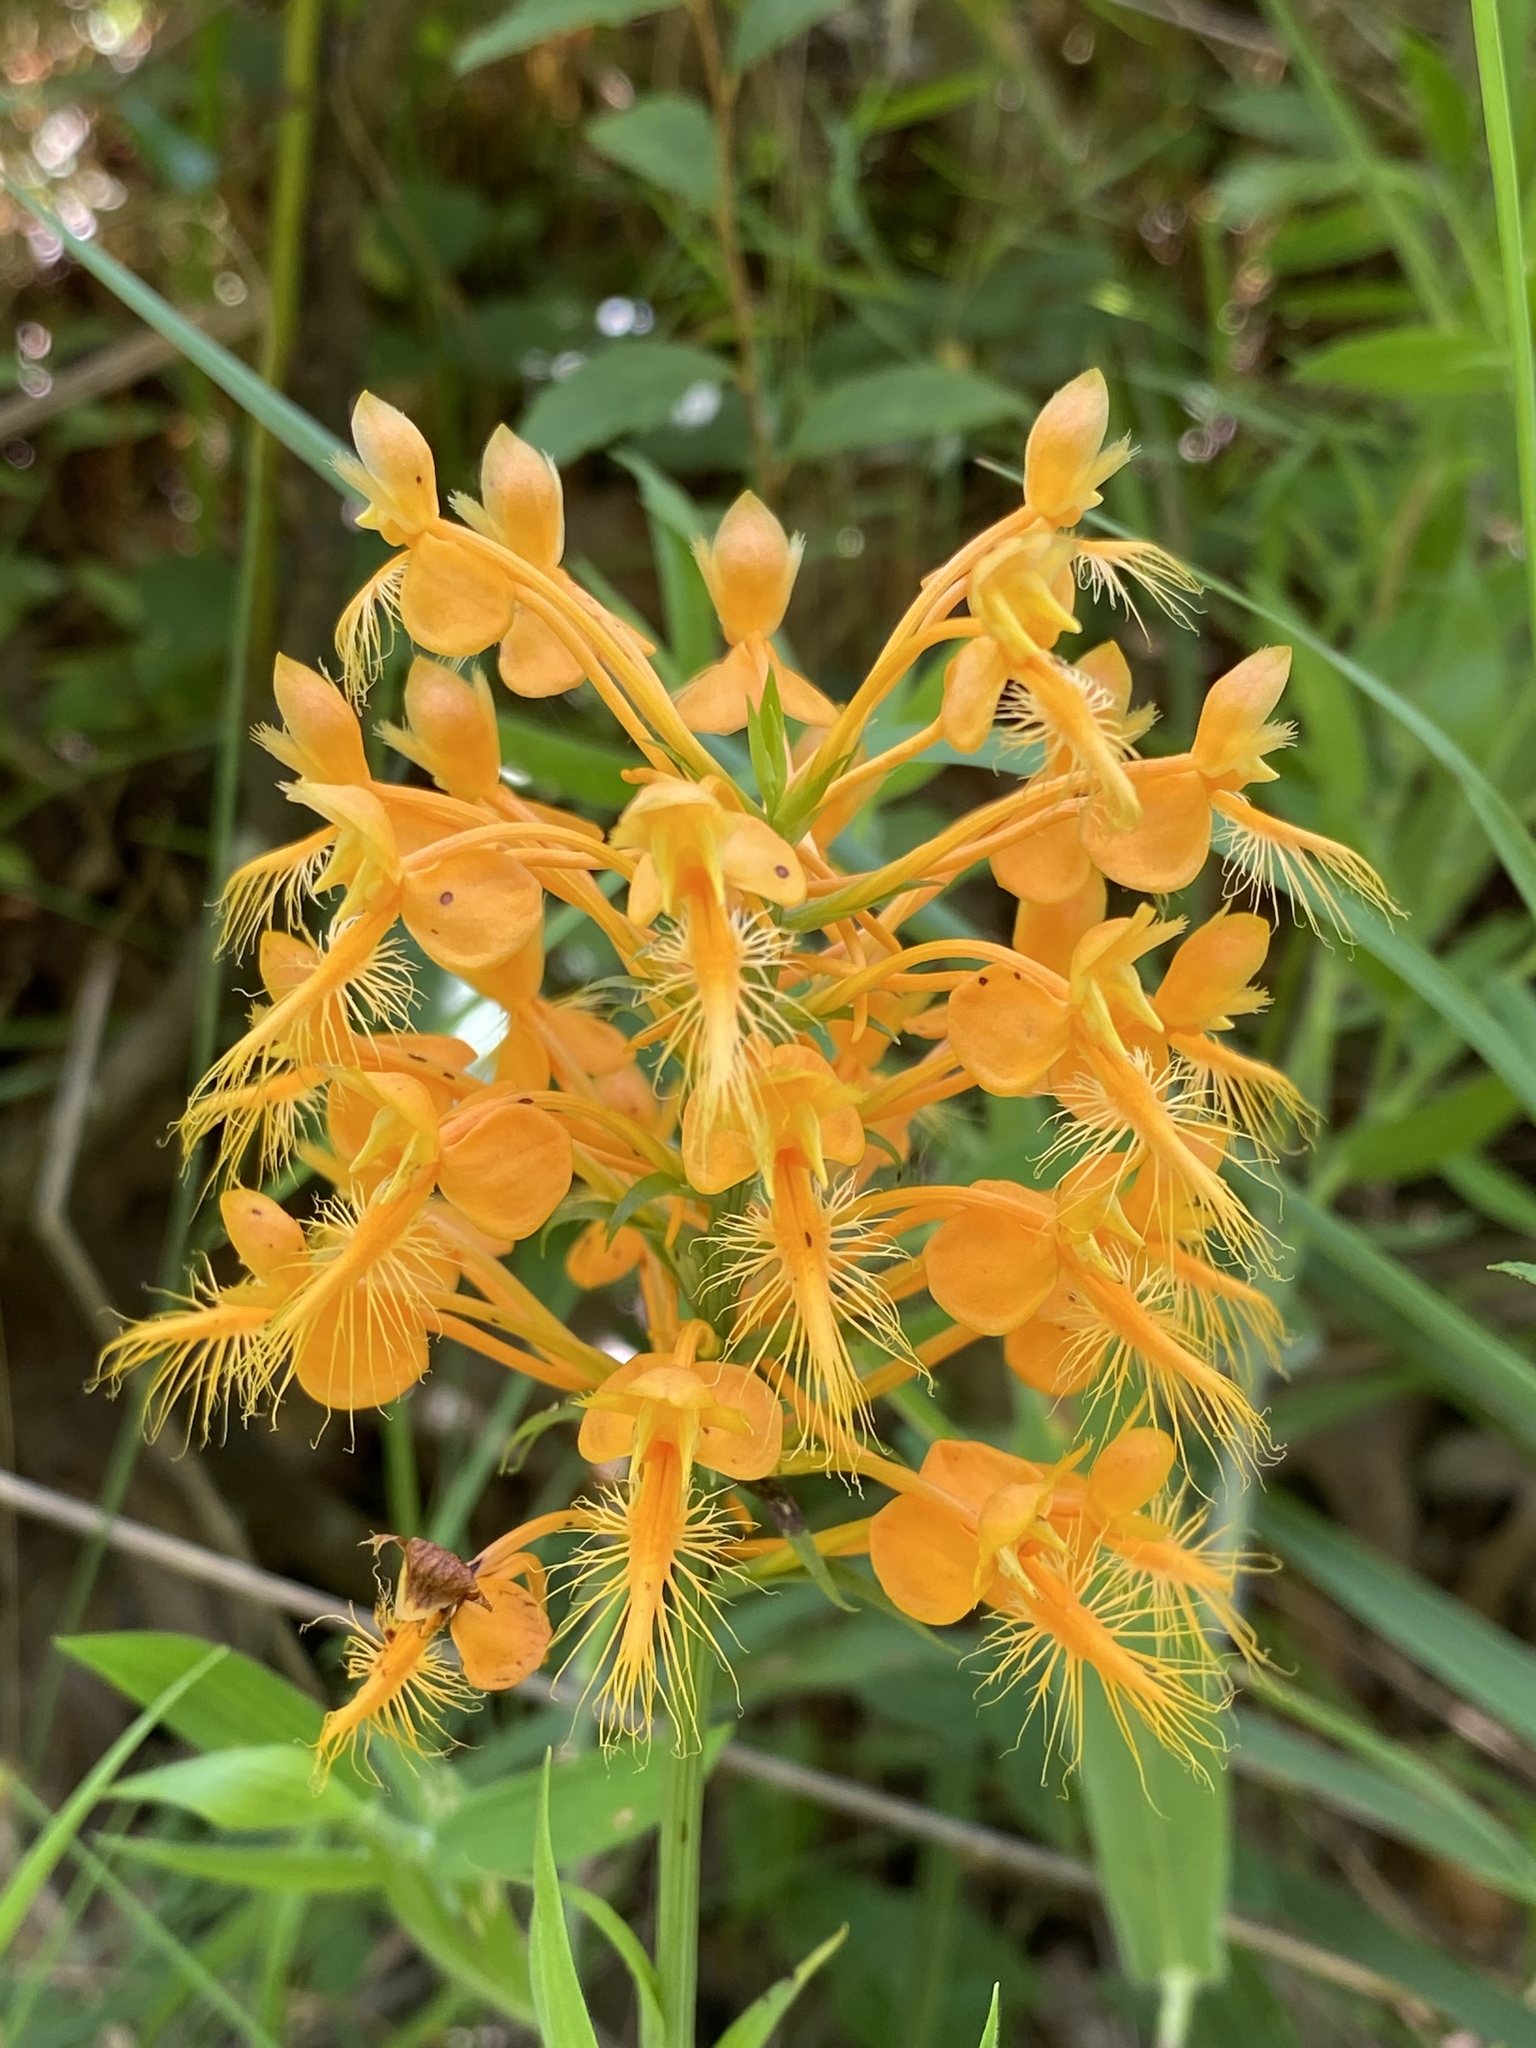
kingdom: Plantae
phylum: Tracheophyta
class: Liliopsida
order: Asparagales
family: Orchidaceae
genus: Platanthera
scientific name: Platanthera ciliaris
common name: Yellow fringed orchid
